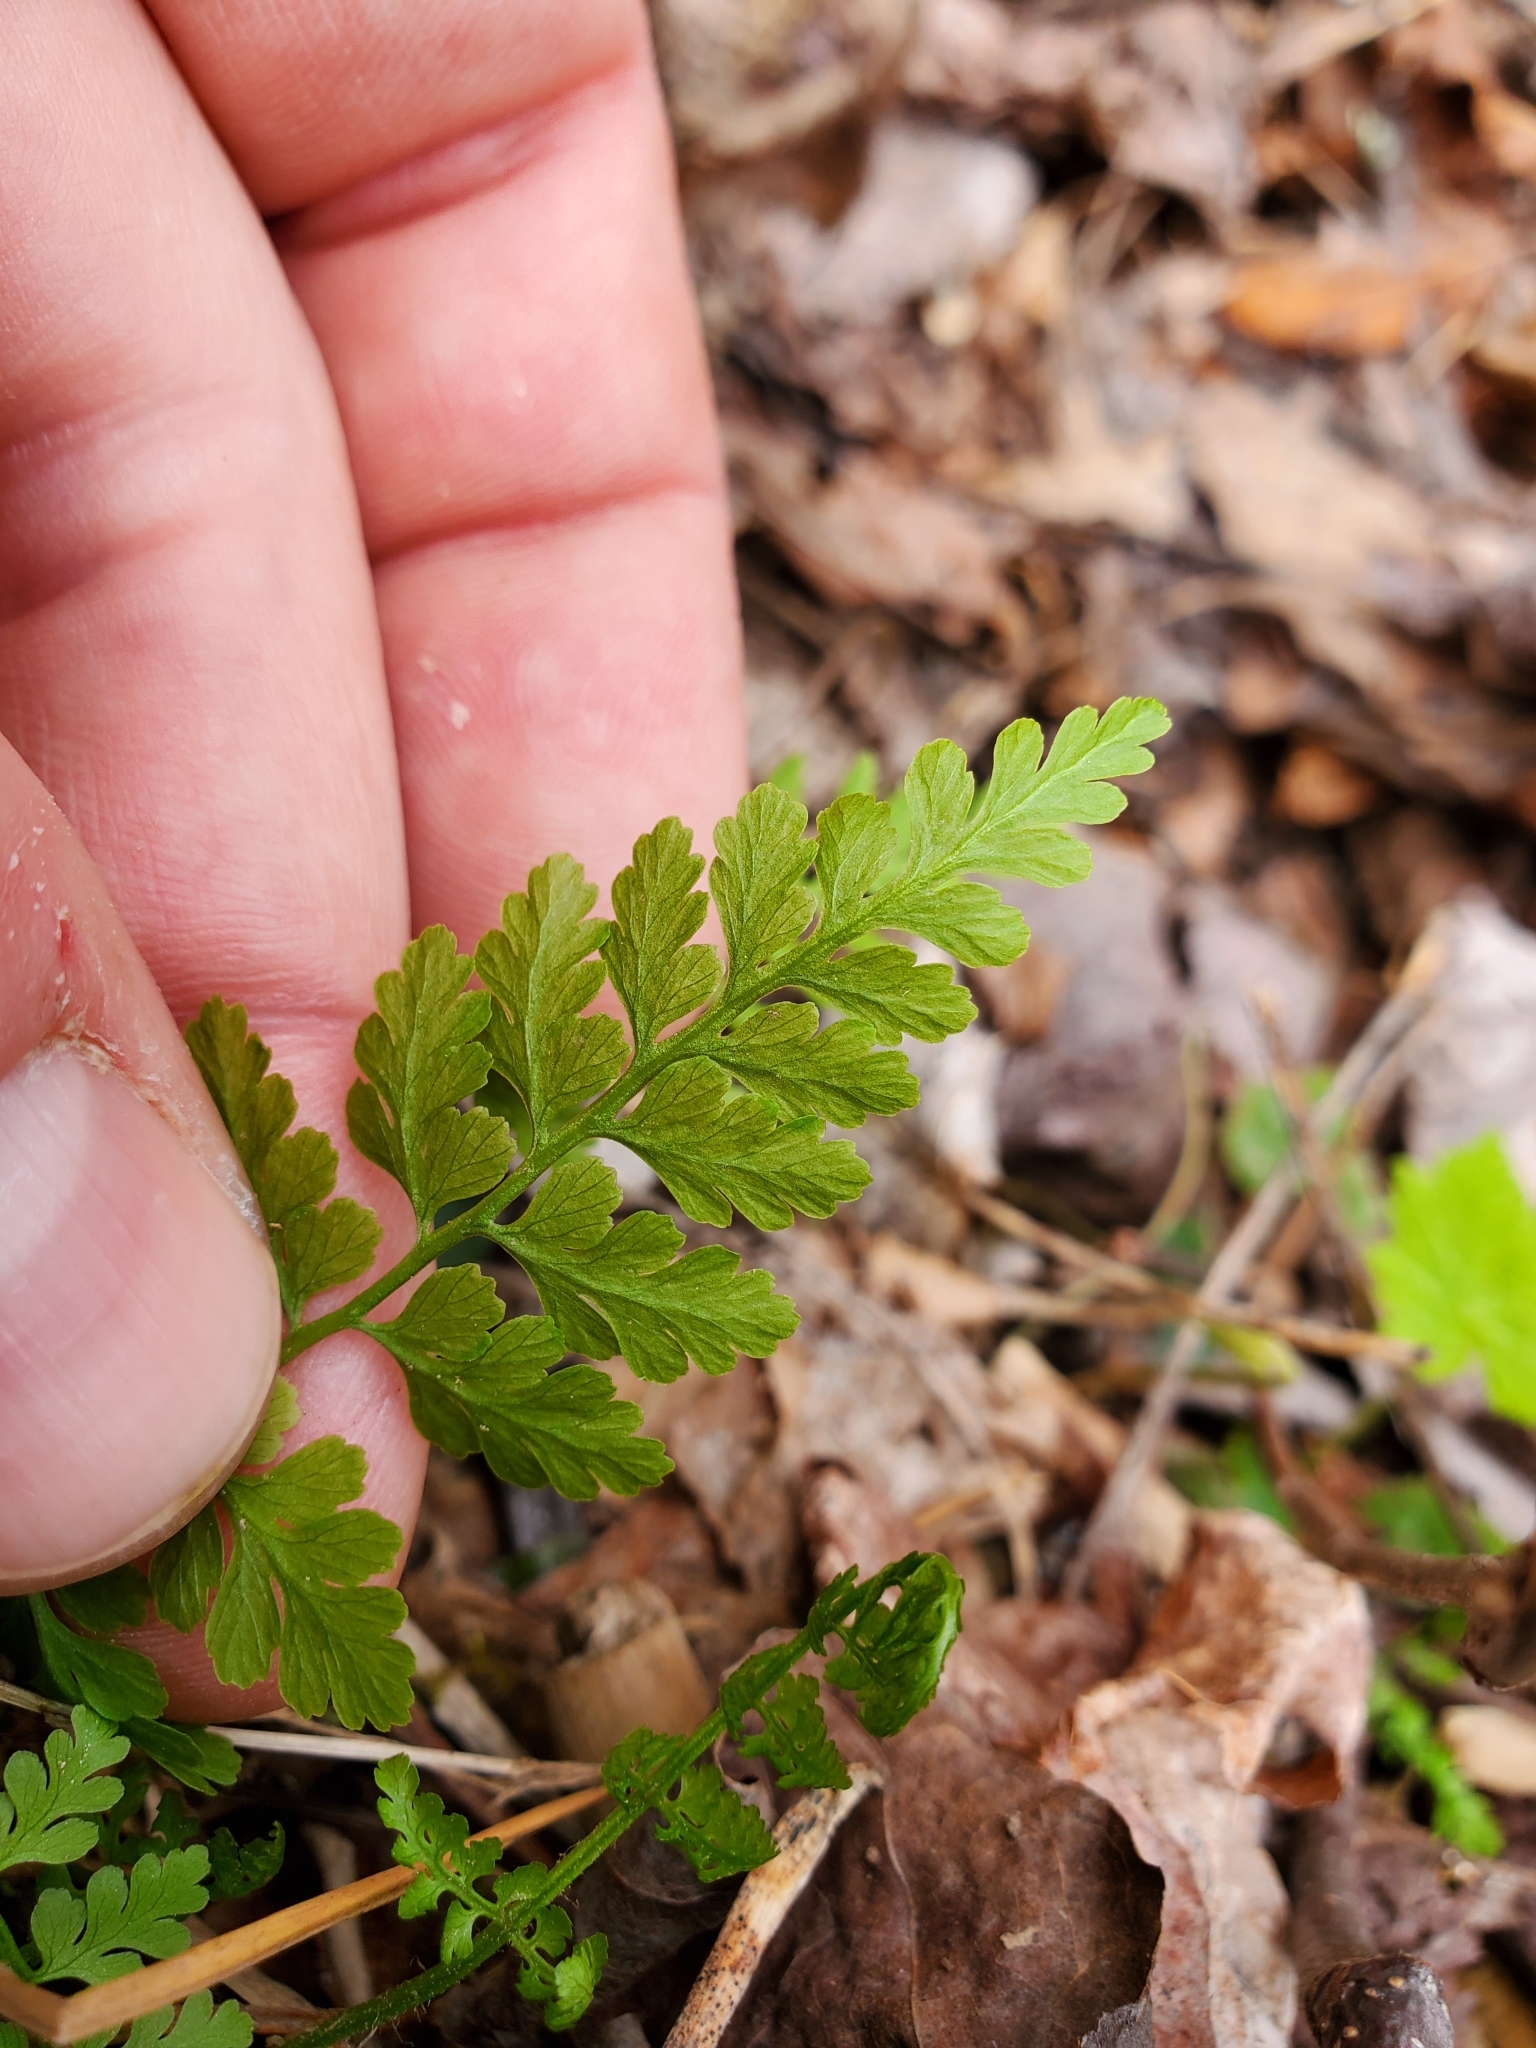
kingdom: Plantae
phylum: Tracheophyta
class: Polypodiopsida
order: Polypodiales
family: Cystopteridaceae
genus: Cystopteris
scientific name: Cystopteris protrusa
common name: Lowland brittle fern
